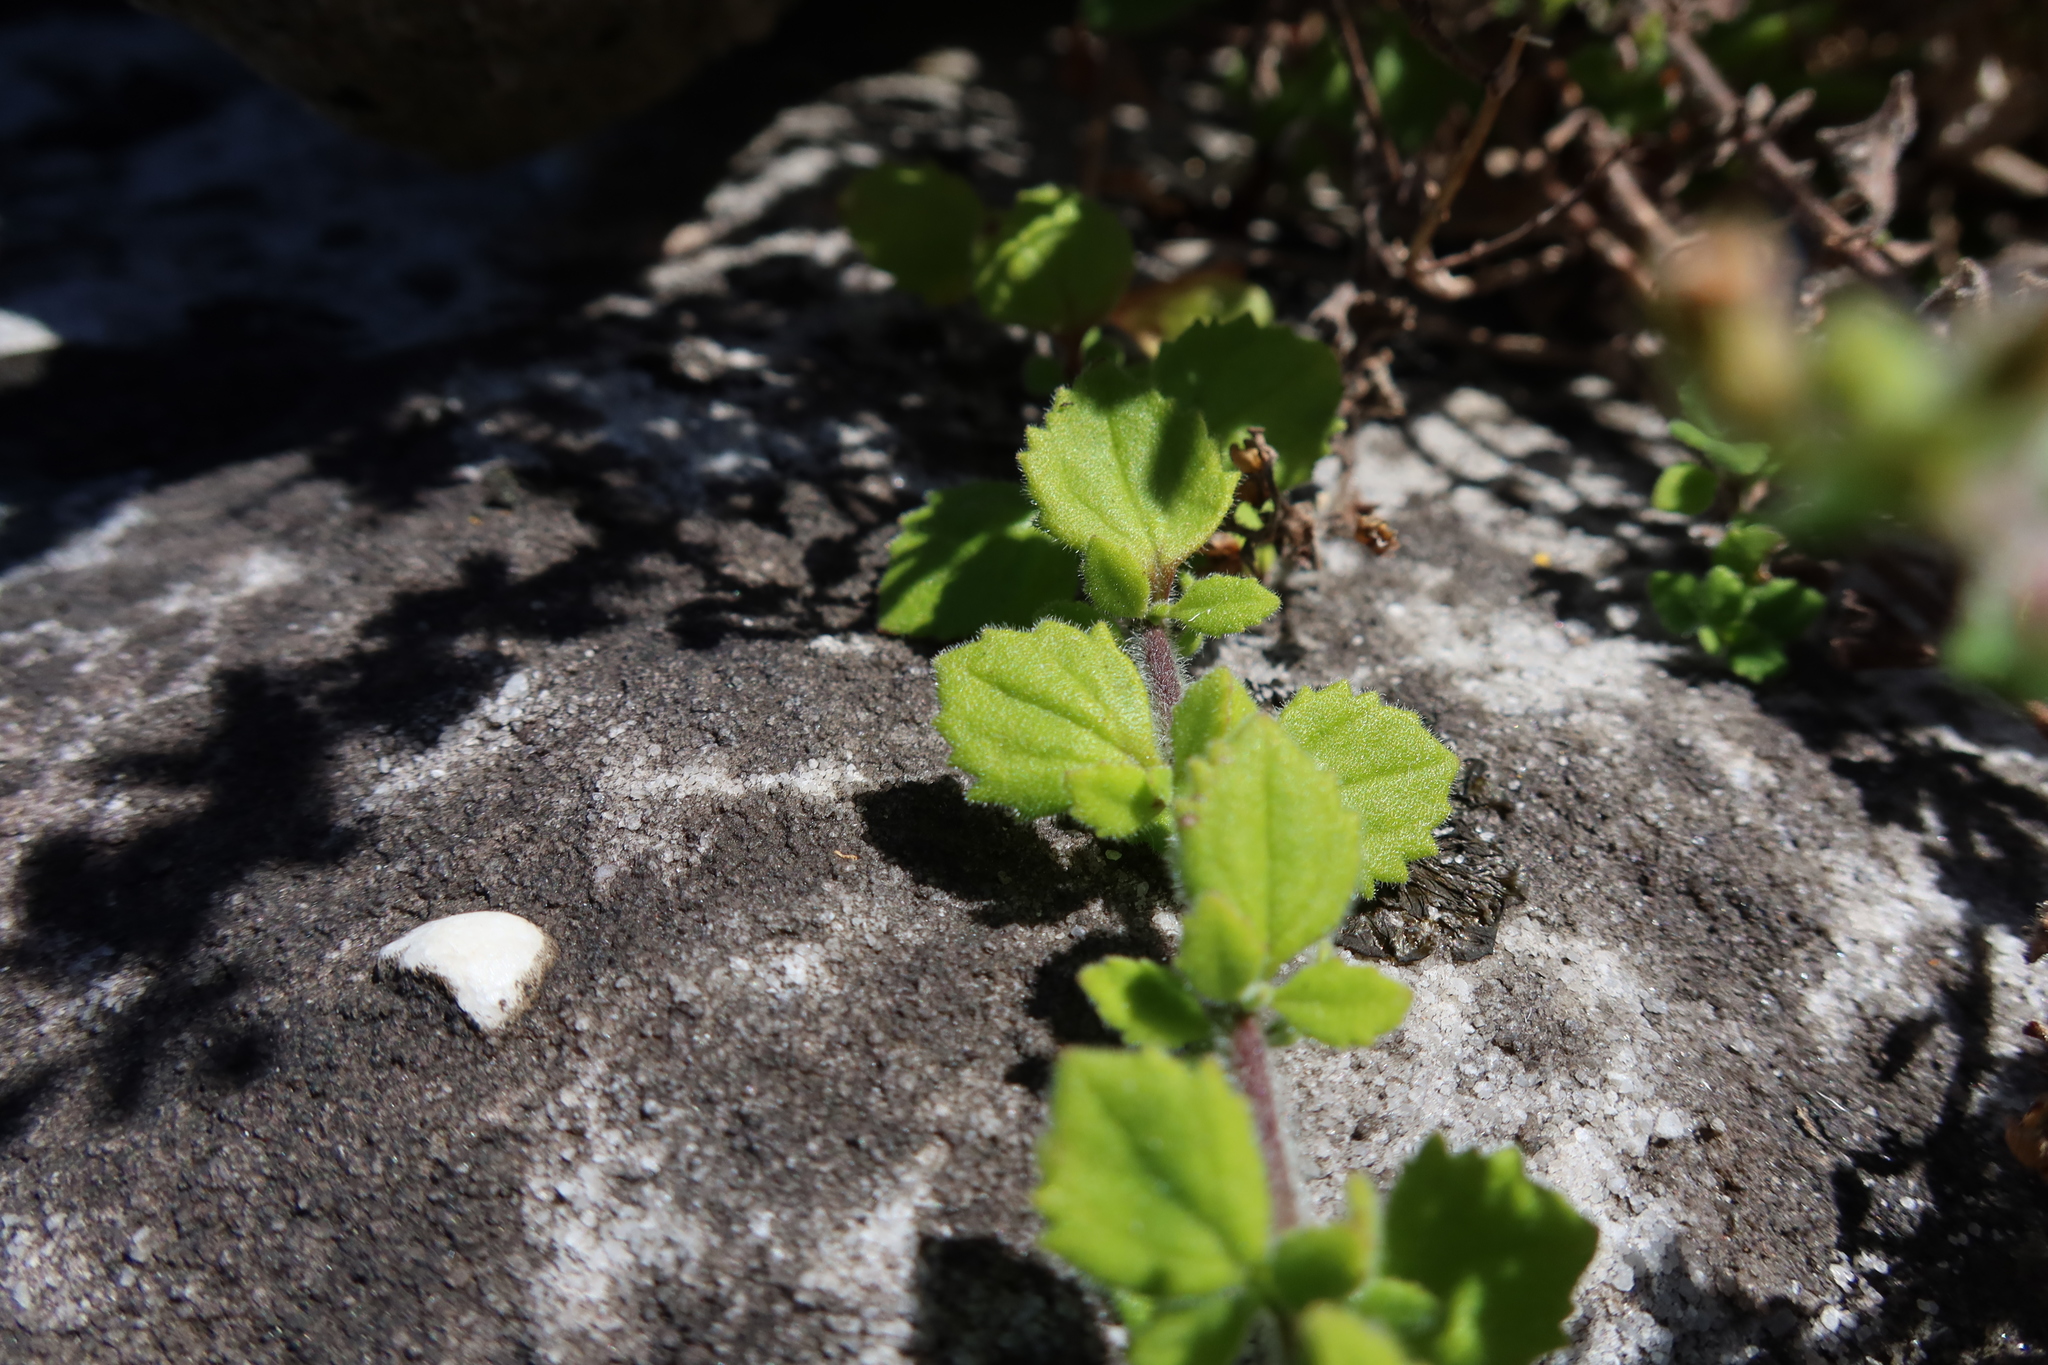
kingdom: Plantae
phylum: Tracheophyta
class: Magnoliopsida
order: Lamiales
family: Scrophulariaceae
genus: Chaenostoma
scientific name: Chaenostoma hispidum
